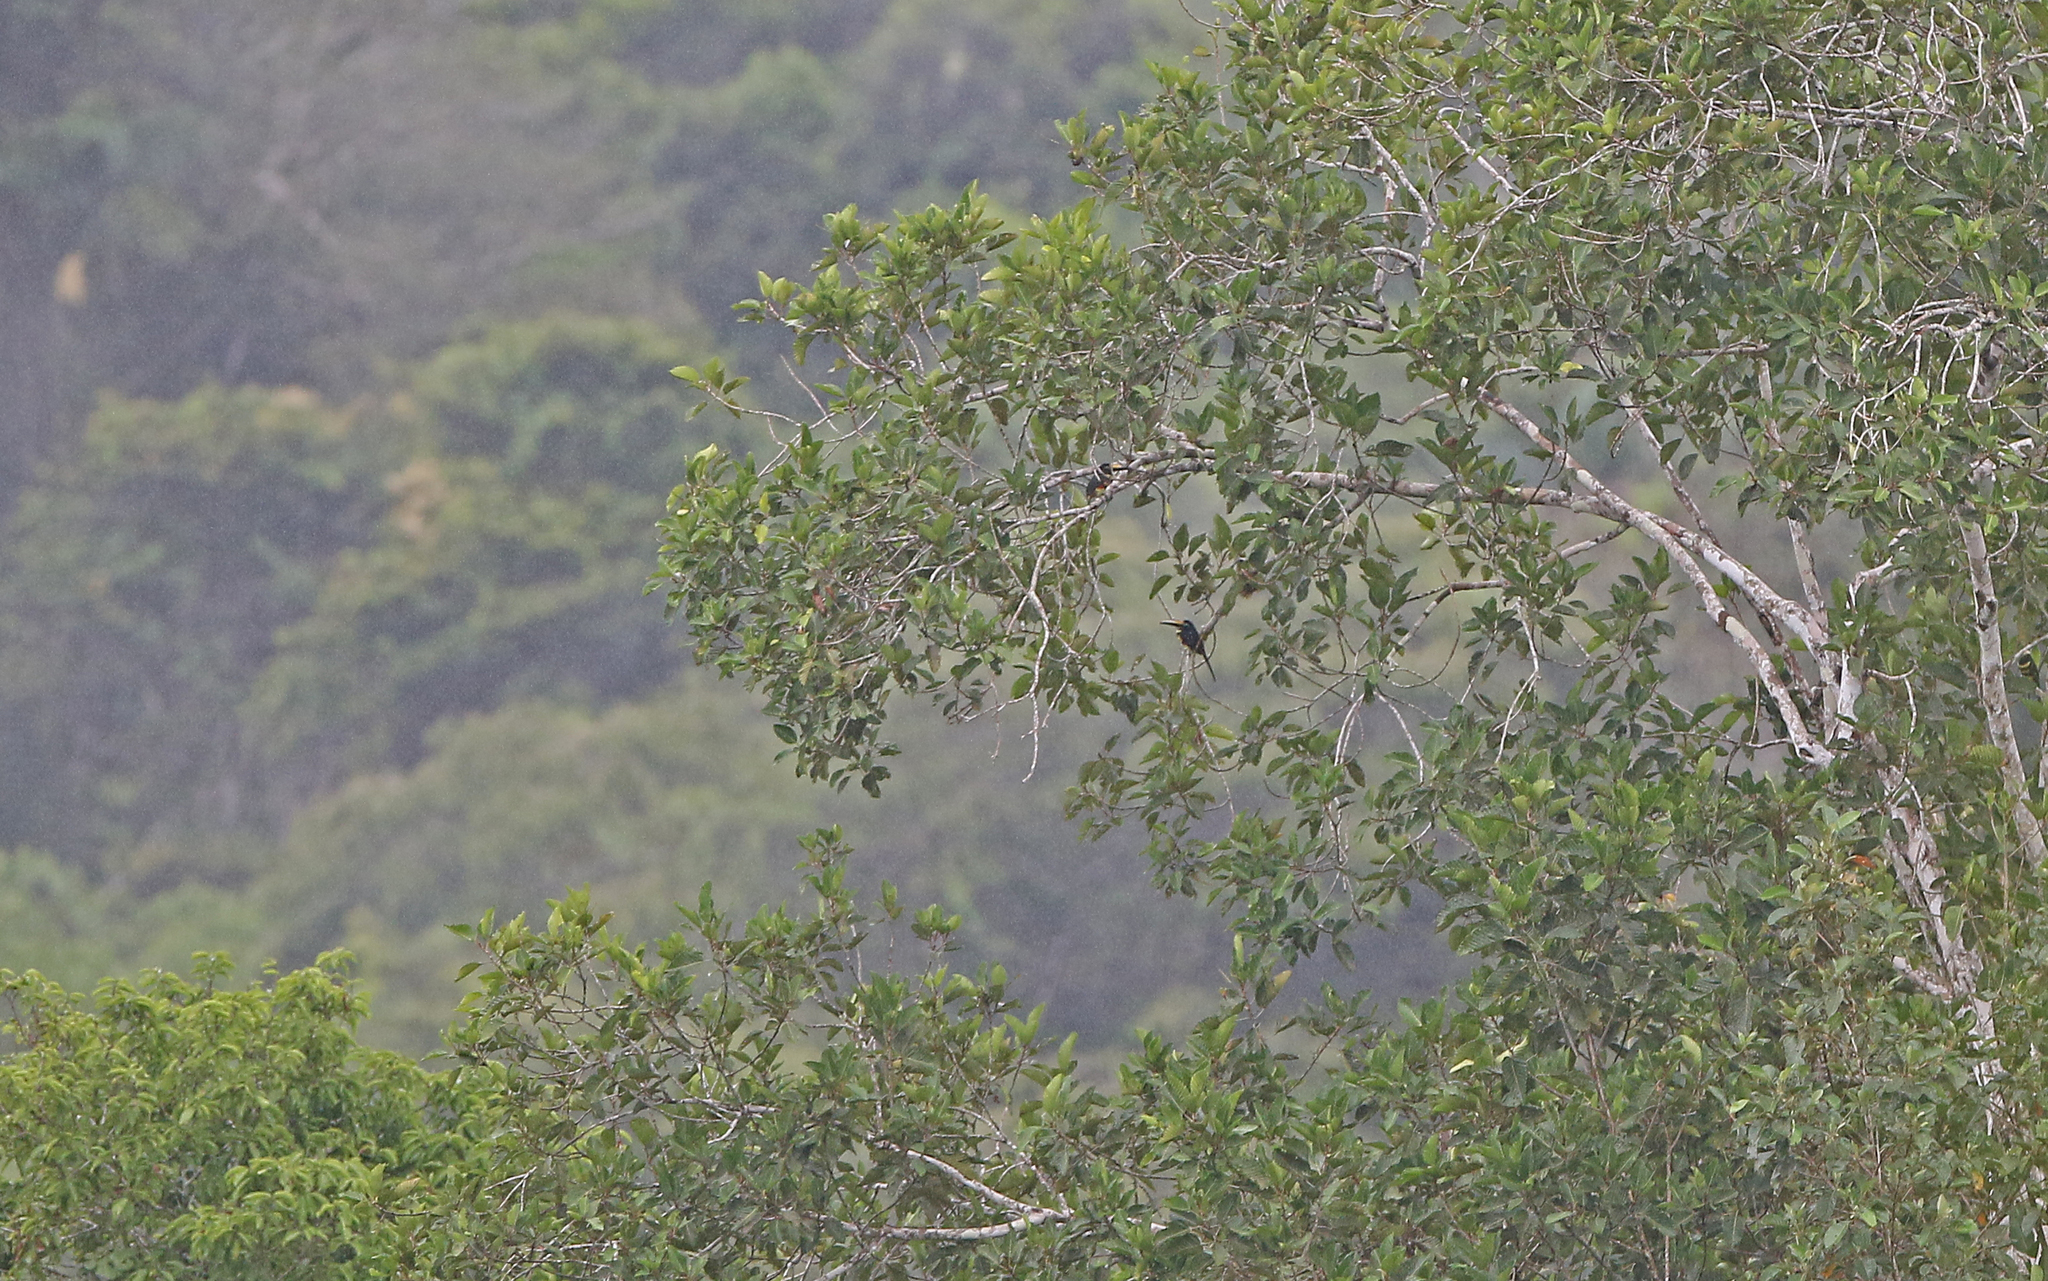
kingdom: Animalia
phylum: Chordata
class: Aves
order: Piciformes
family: Ramphastidae
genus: Pteroglossus
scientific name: Pteroglossus pluricinctus
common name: Many-banded aracari
